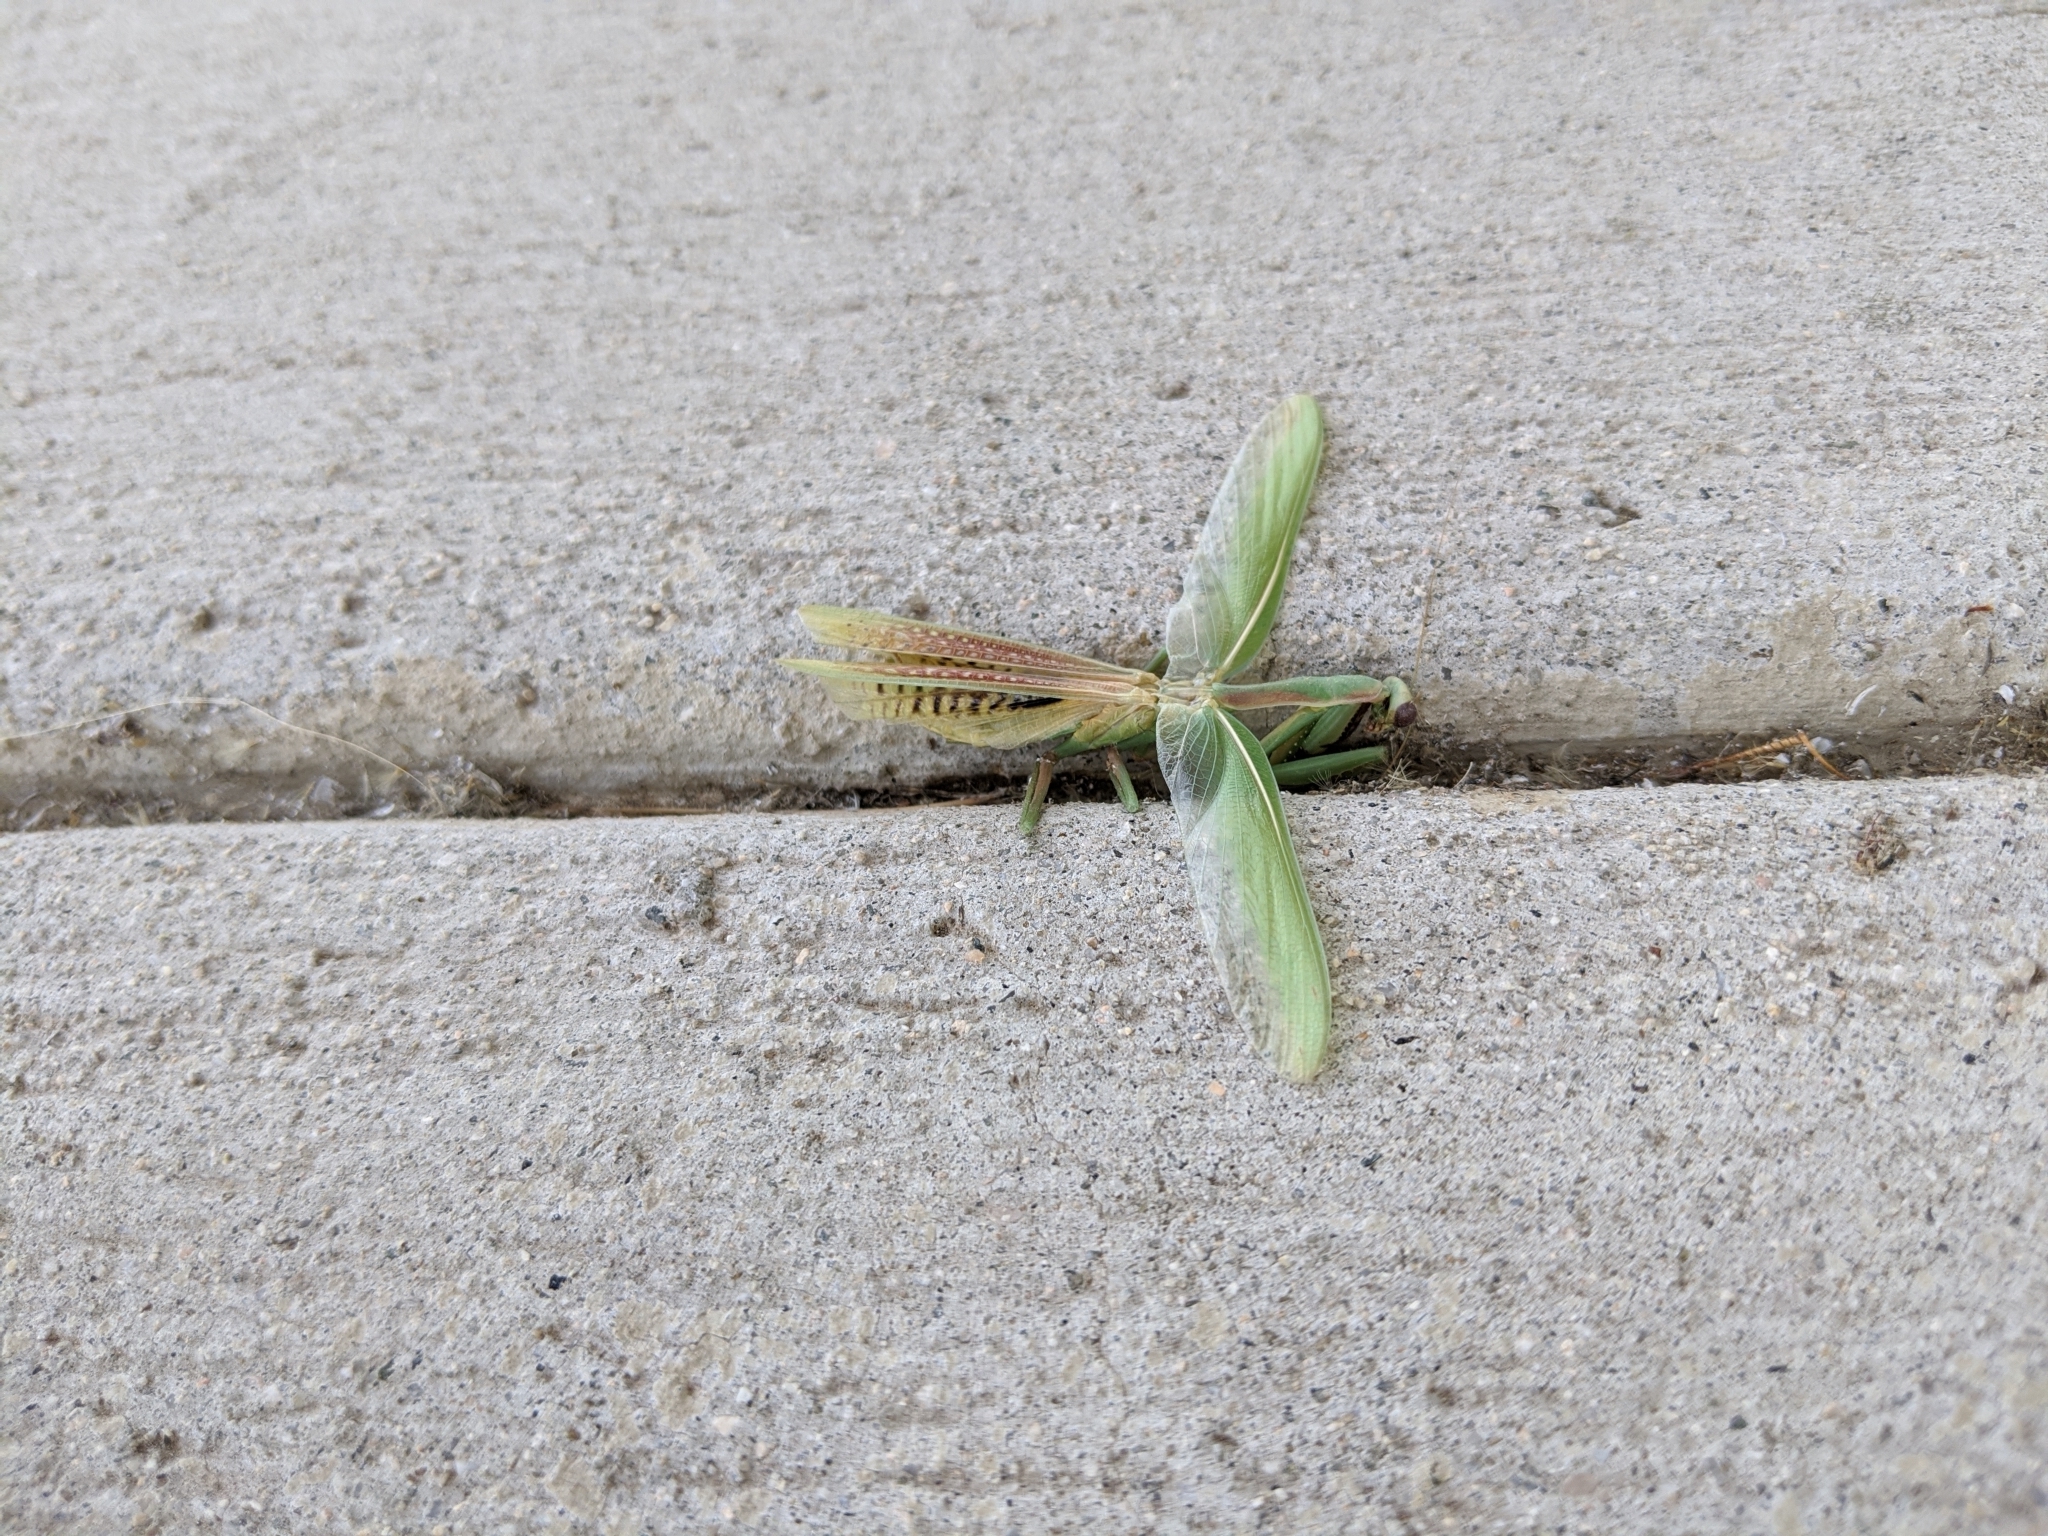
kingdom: Animalia
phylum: Arthropoda
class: Insecta
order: Mantodea
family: Eremiaphilidae
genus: Iris
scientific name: Iris oratoria
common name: Mediterranean mantis
